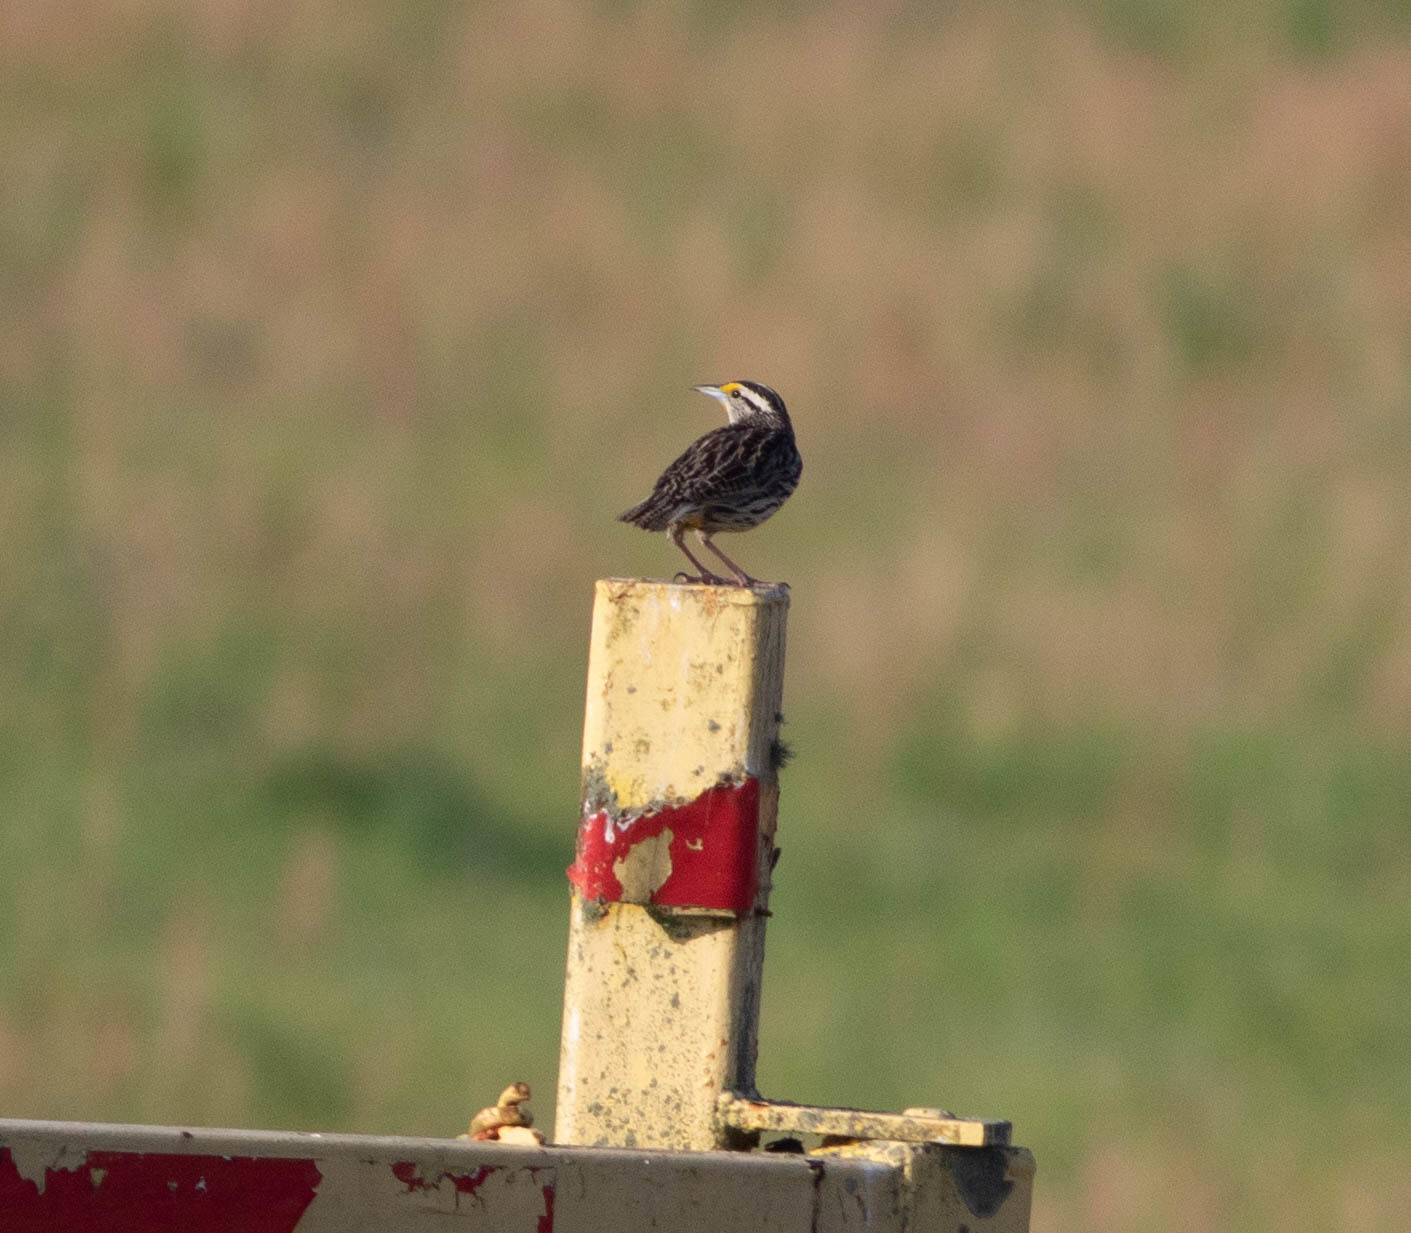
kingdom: Animalia
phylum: Chordata
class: Aves
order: Passeriformes
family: Icteridae
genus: Sturnella
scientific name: Sturnella magna
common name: Eastern meadowlark
